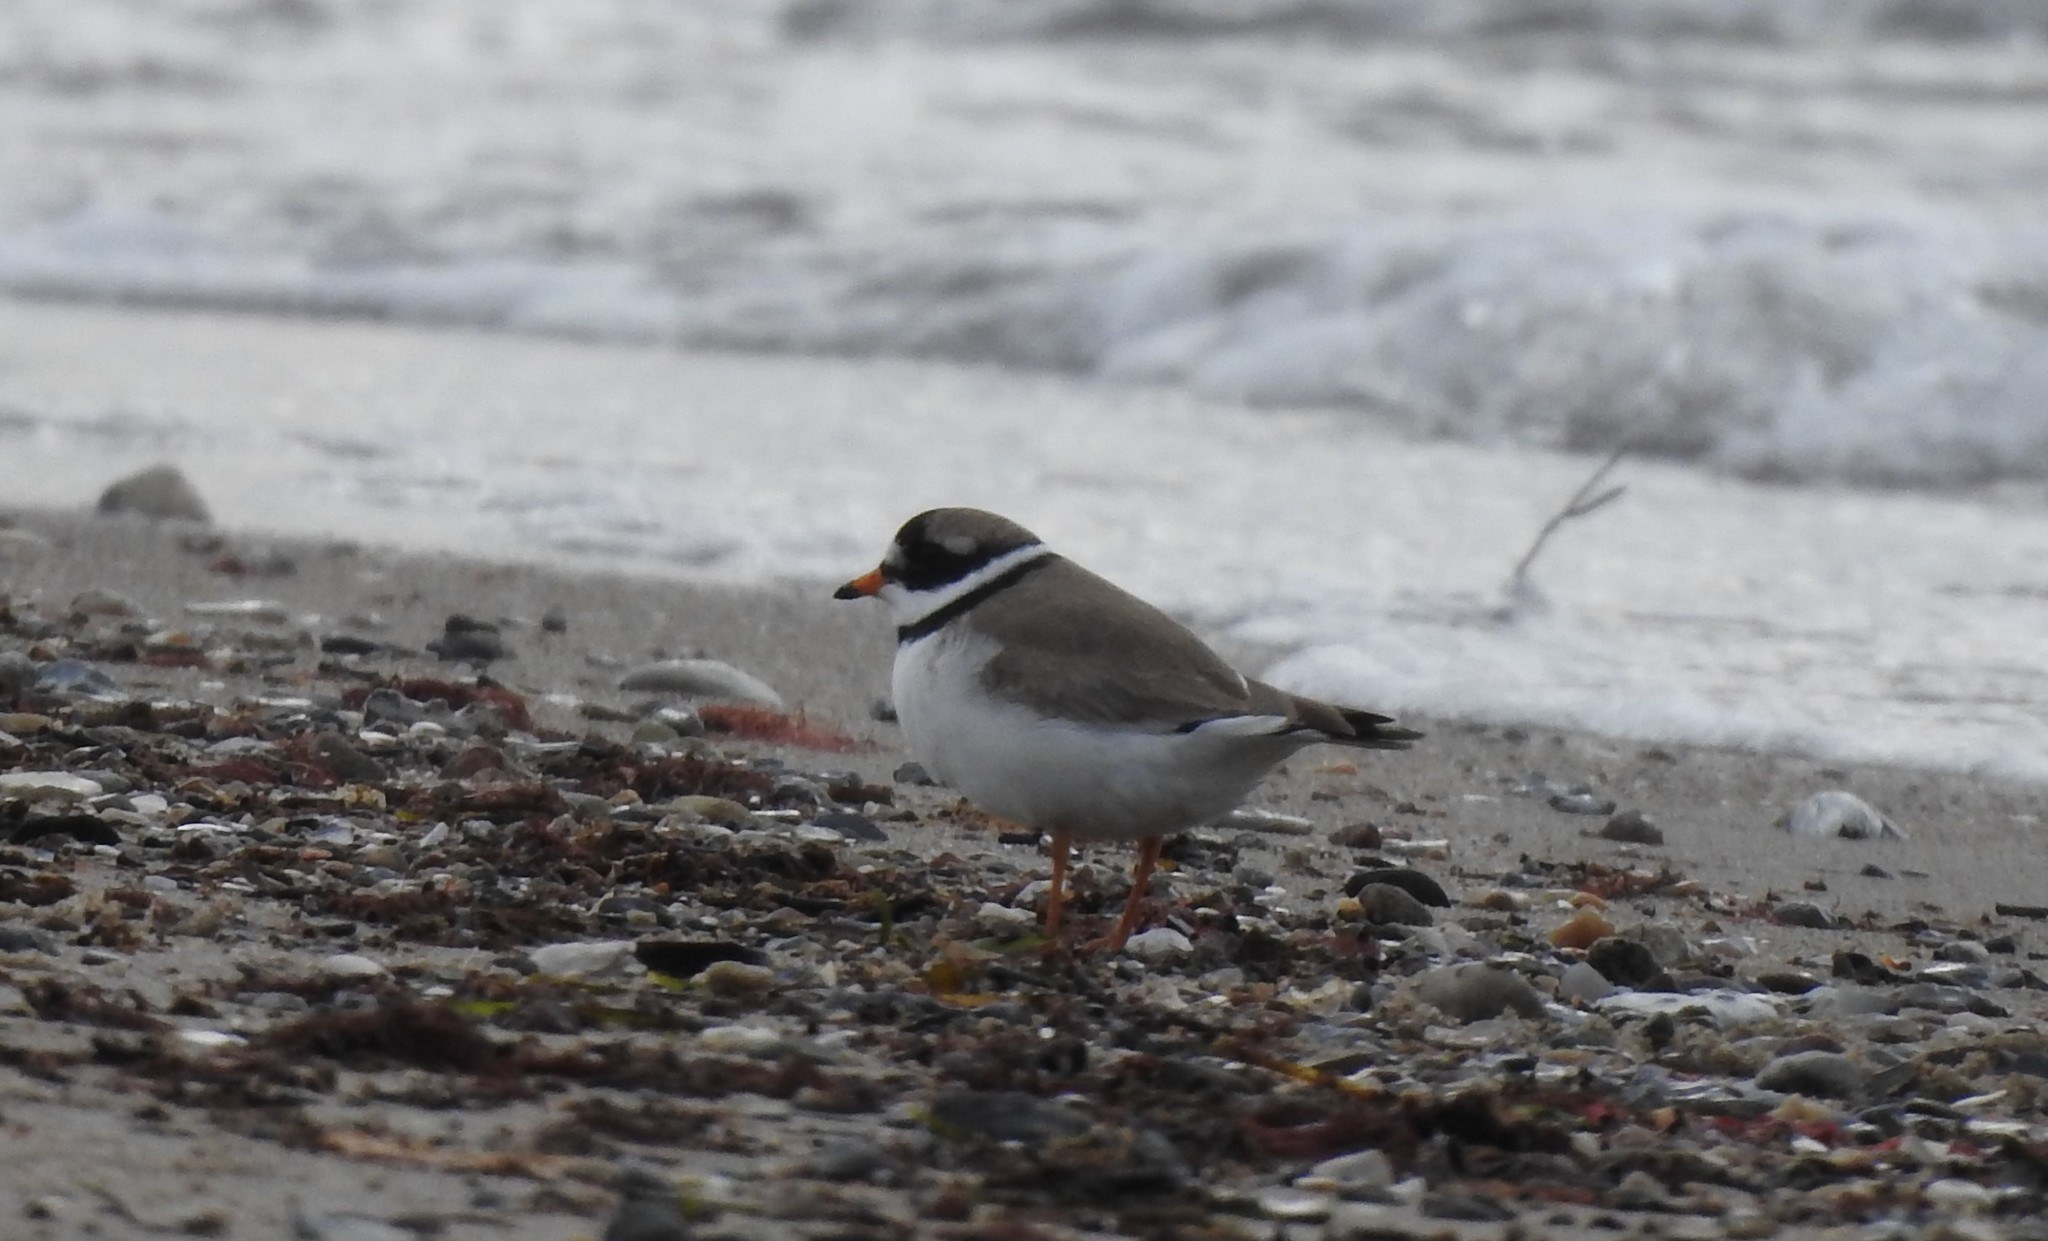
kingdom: Animalia
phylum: Chordata
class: Aves
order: Charadriiformes
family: Charadriidae
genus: Charadrius
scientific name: Charadrius hiaticula
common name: Common ringed plover
